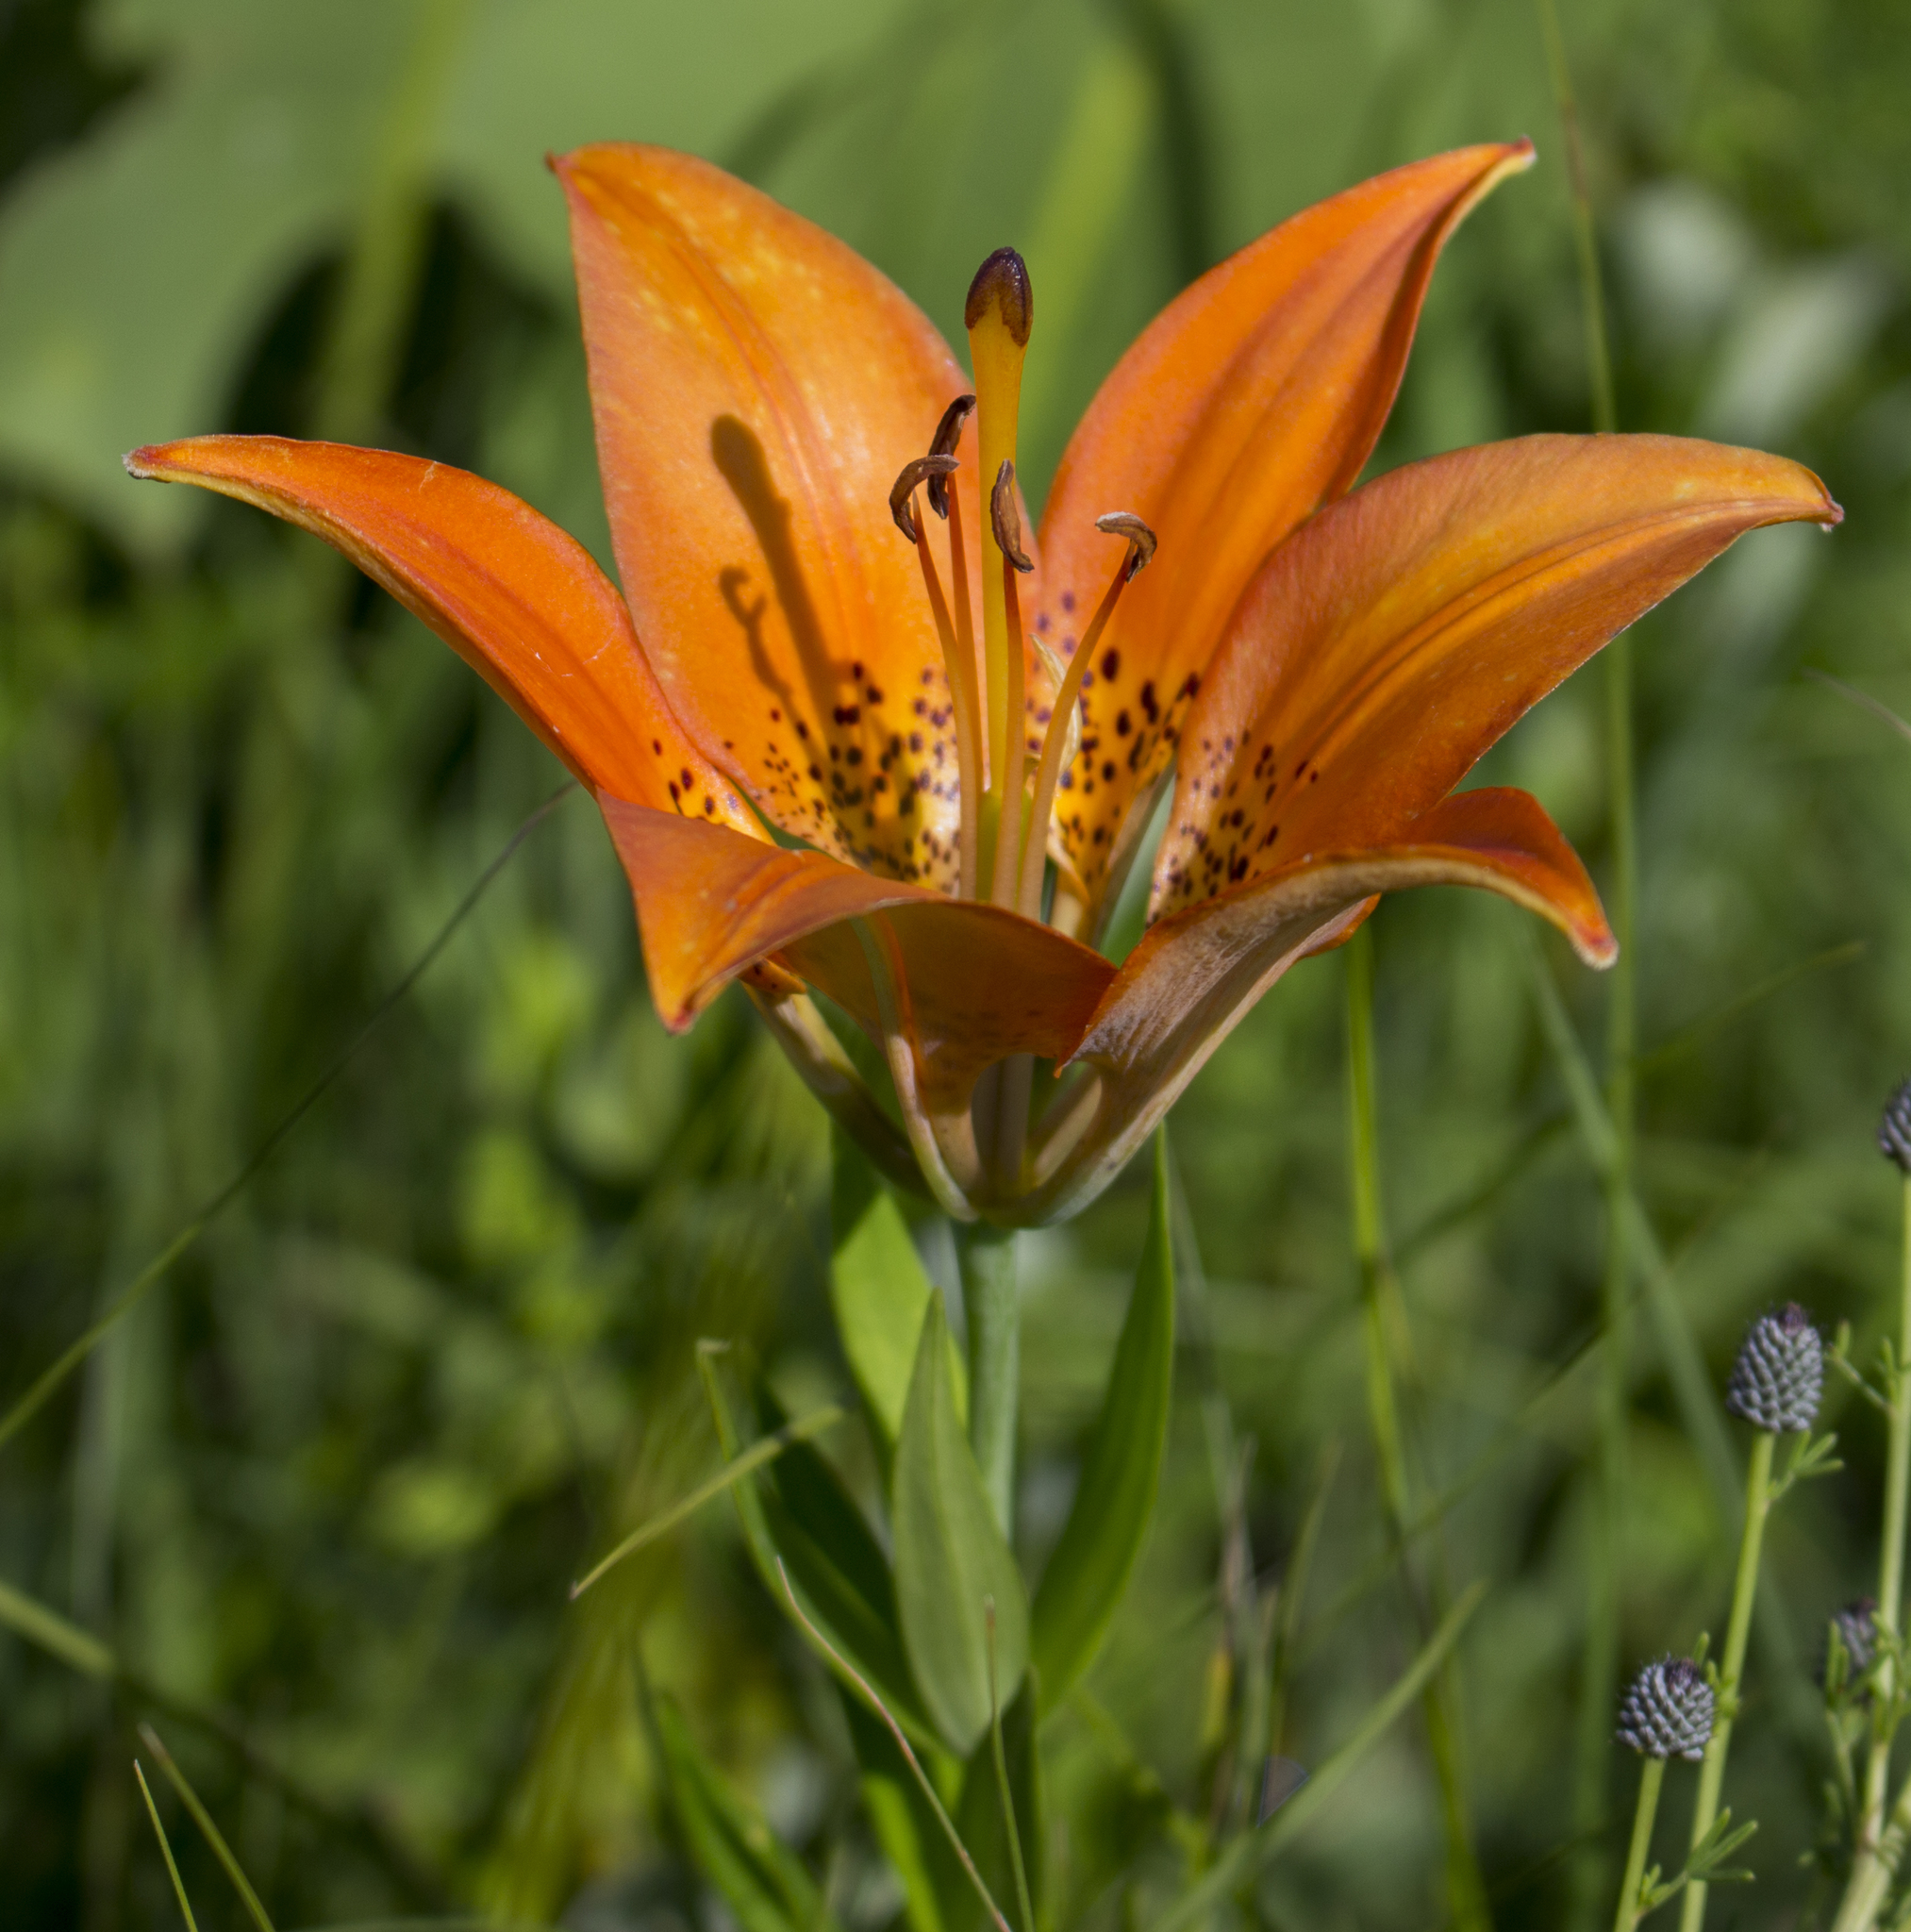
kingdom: Plantae
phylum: Tracheophyta
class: Liliopsida
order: Liliales
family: Liliaceae
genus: Lilium
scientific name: Lilium philadelphicum
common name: Red lily
